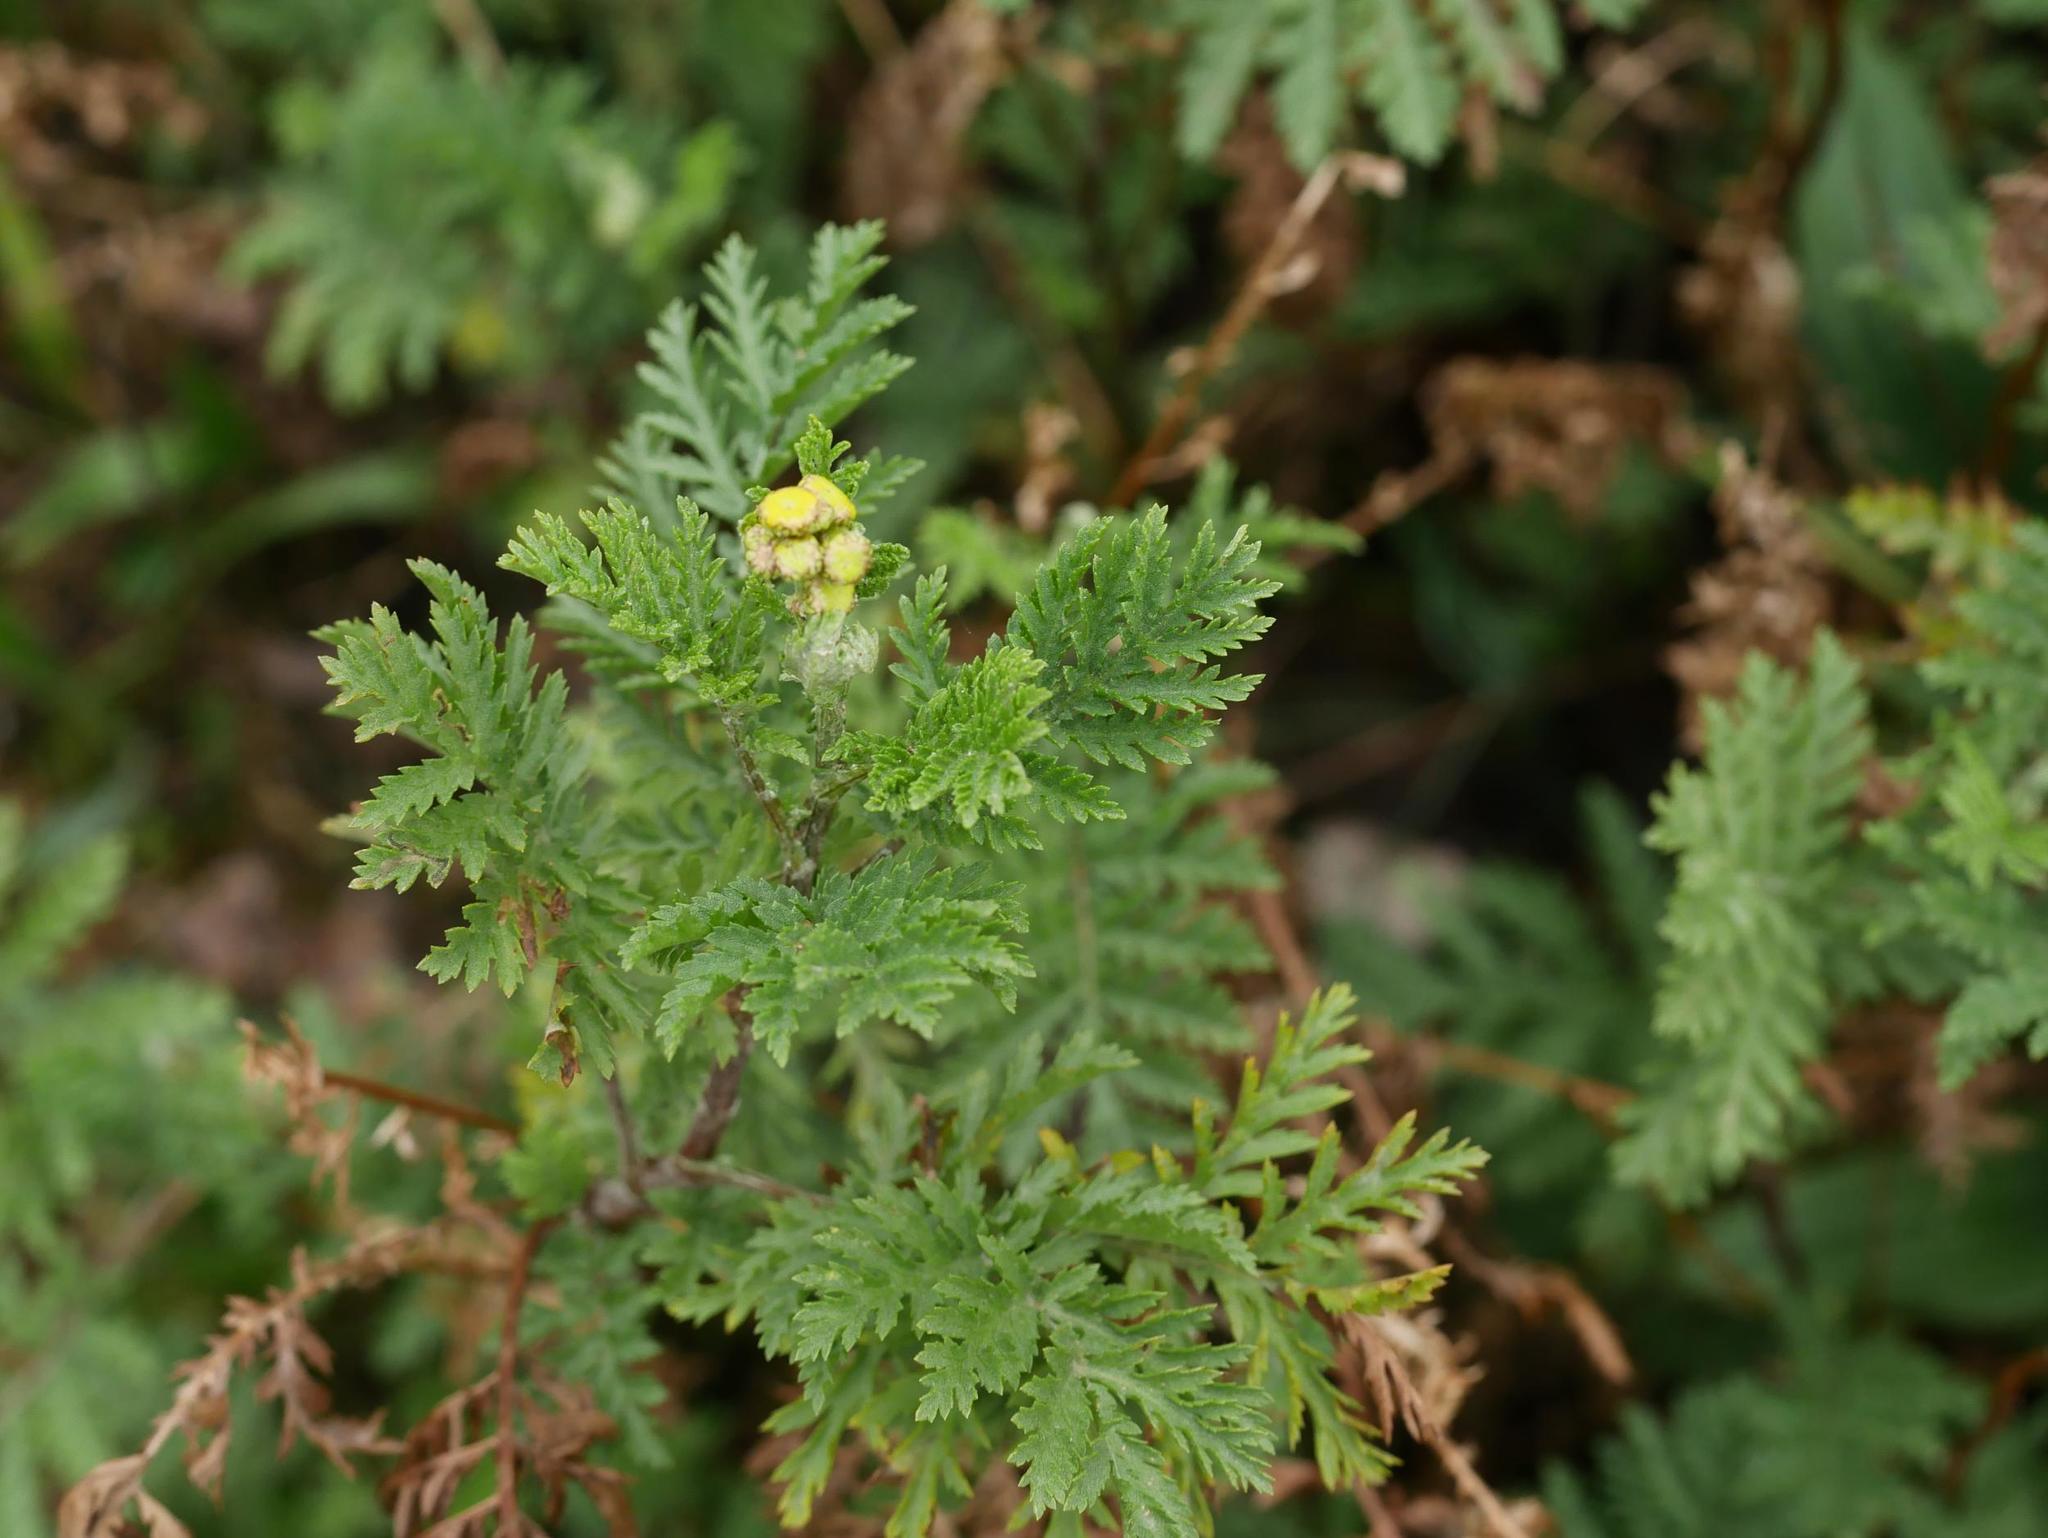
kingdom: Plantae
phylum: Tracheophyta
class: Magnoliopsida
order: Asterales
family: Asteraceae
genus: Tanacetum
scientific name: Tanacetum vulgare
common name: Common tansy
